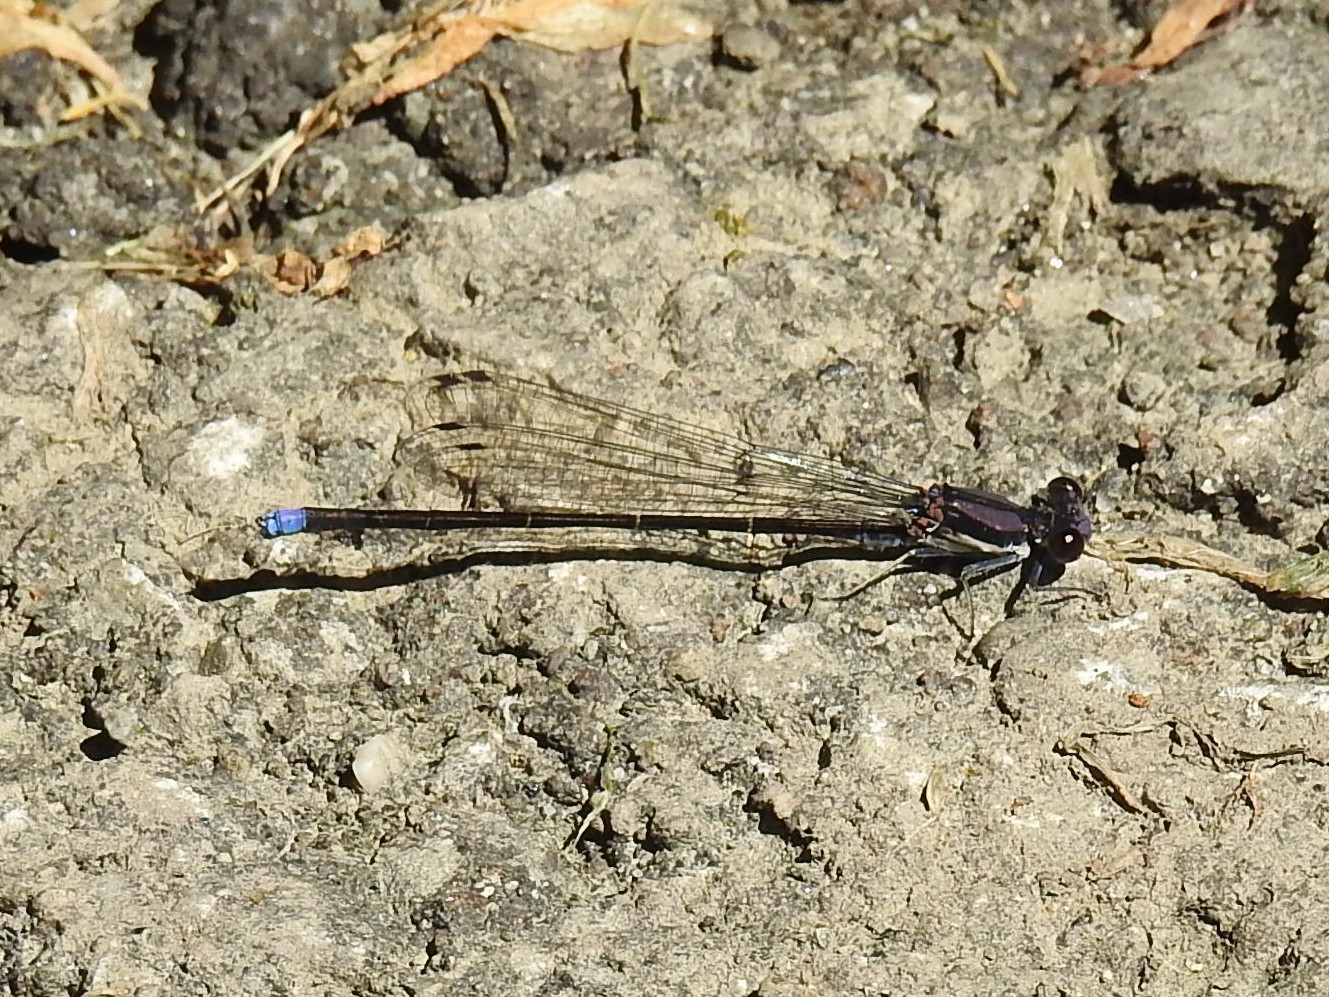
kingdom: Animalia
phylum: Arthropoda
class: Insecta
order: Odonata
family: Coenagrionidae
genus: Argia
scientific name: Argia tibialis
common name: Blue-tipped dancer
